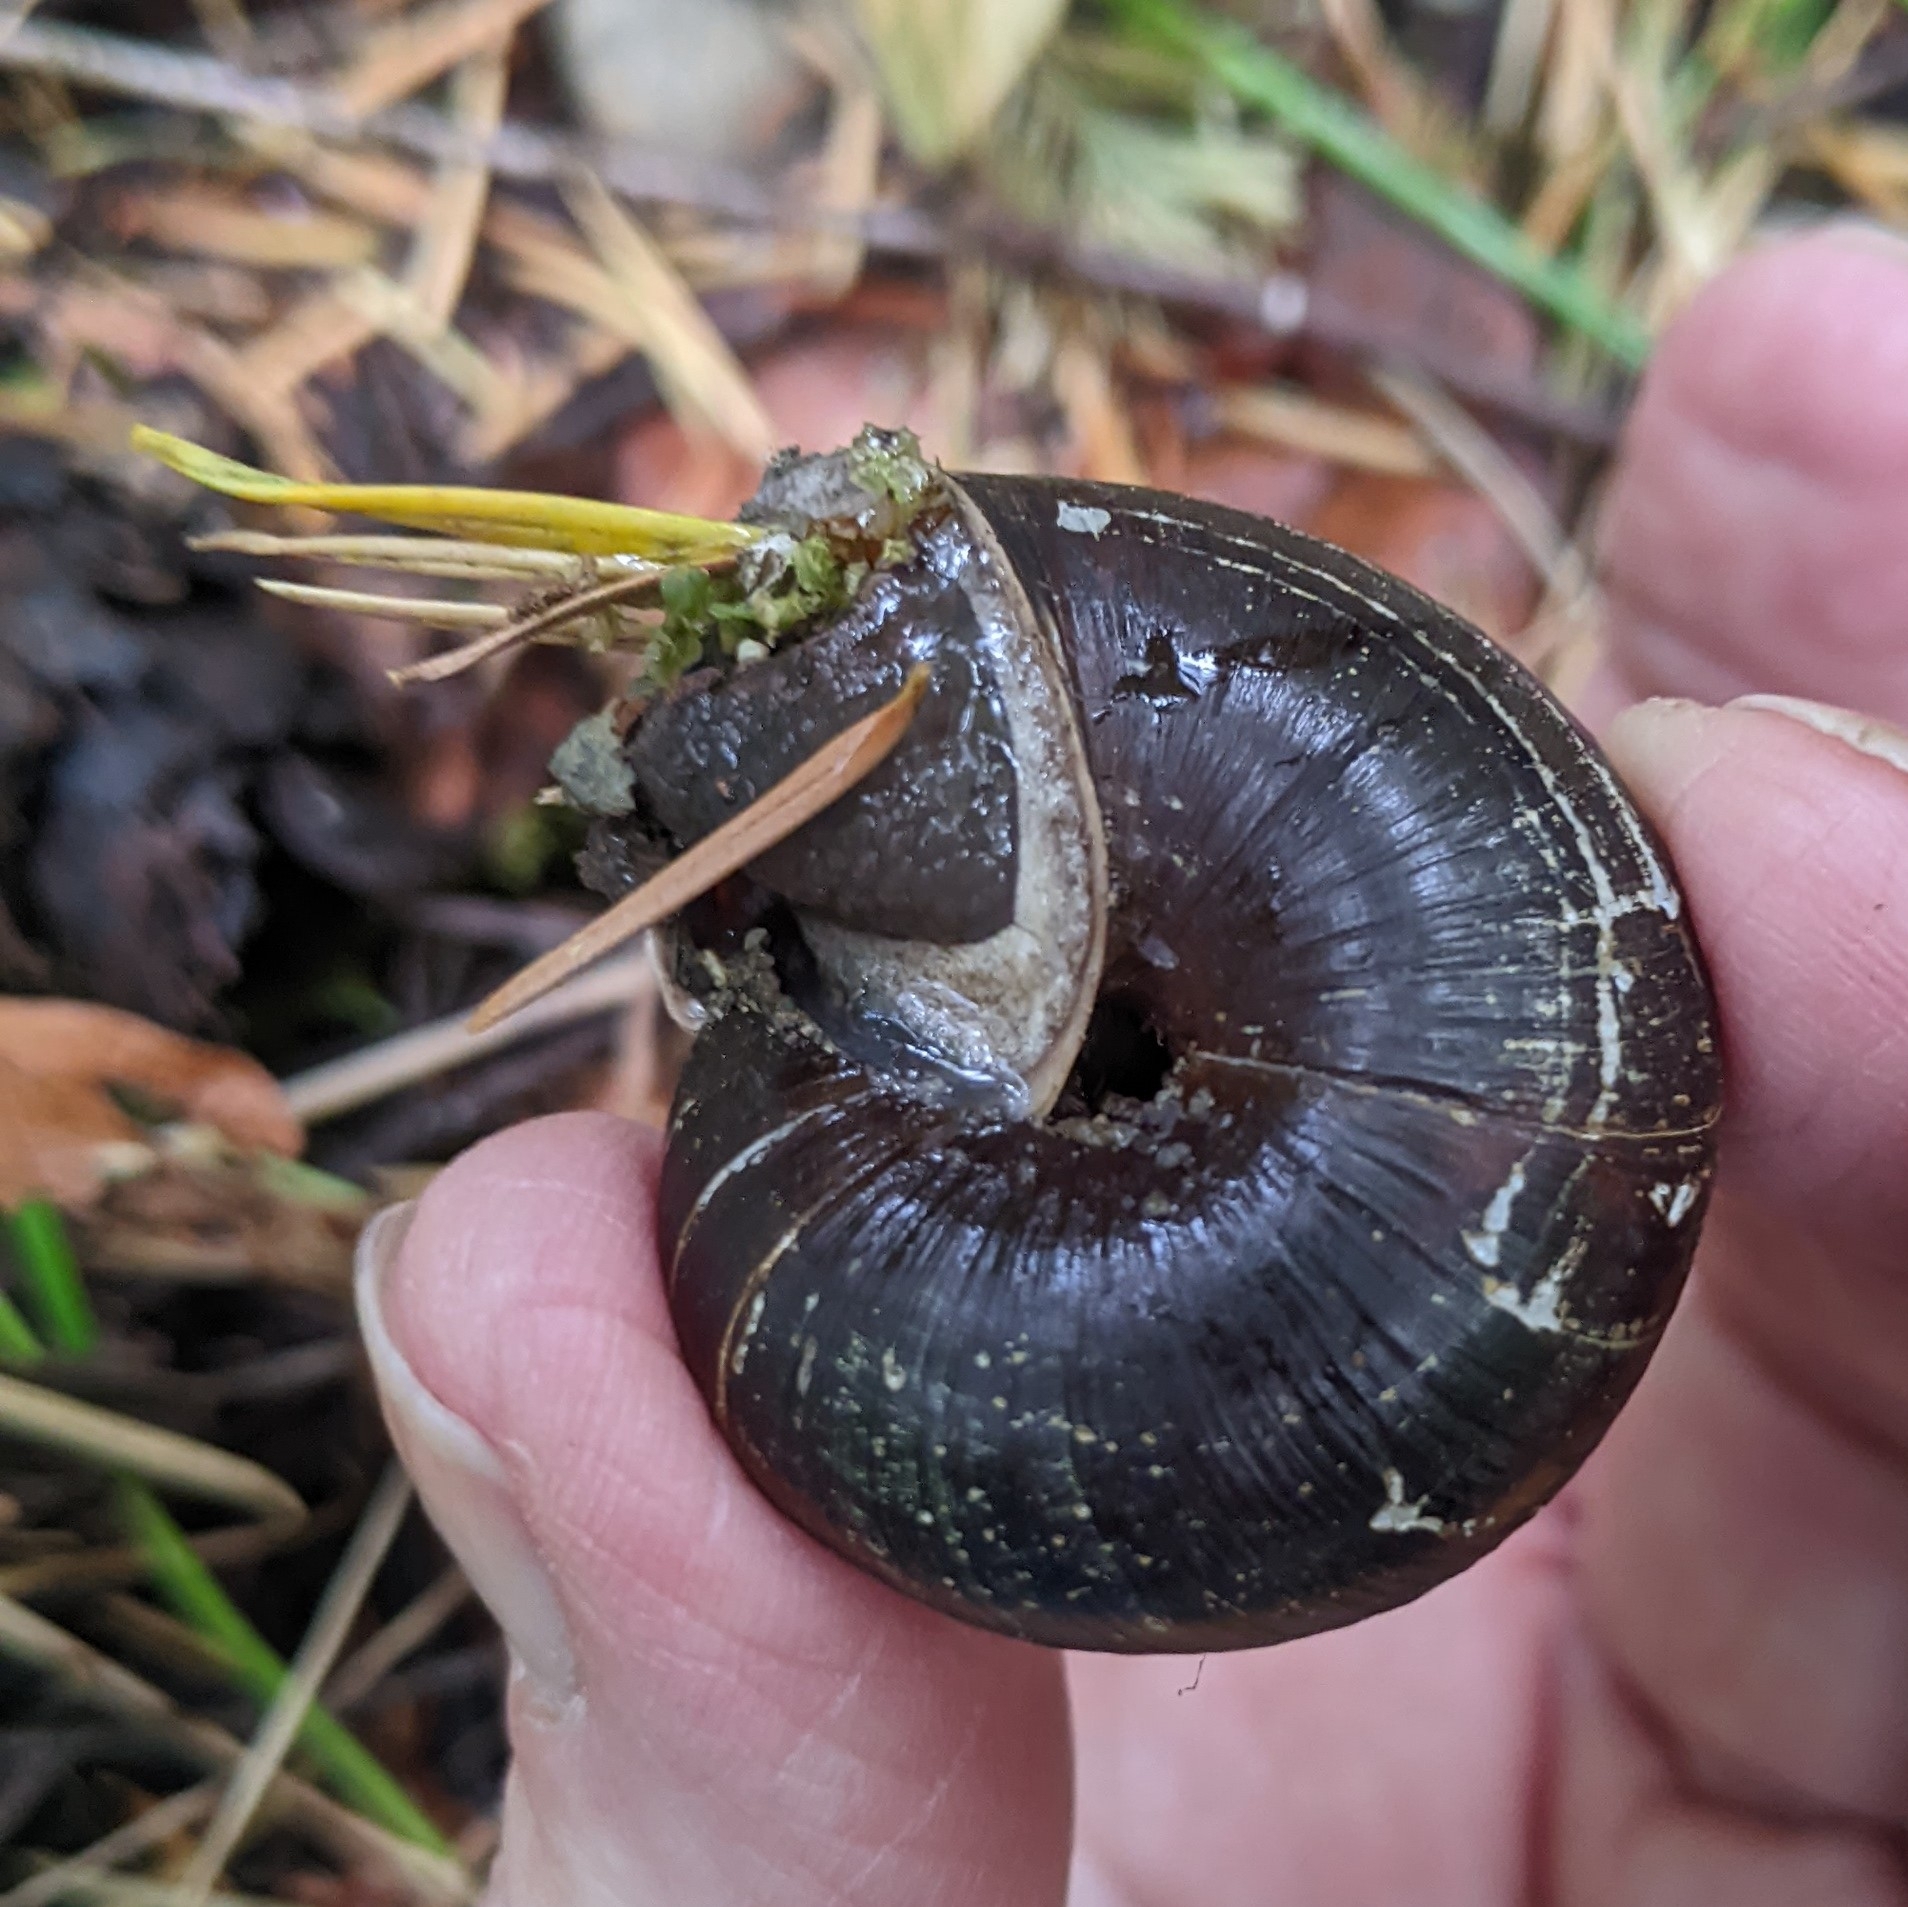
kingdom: Animalia
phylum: Mollusca
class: Gastropoda
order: Stylommatophora
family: Xanthonychidae
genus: Monadenia
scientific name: Monadenia fidelis
